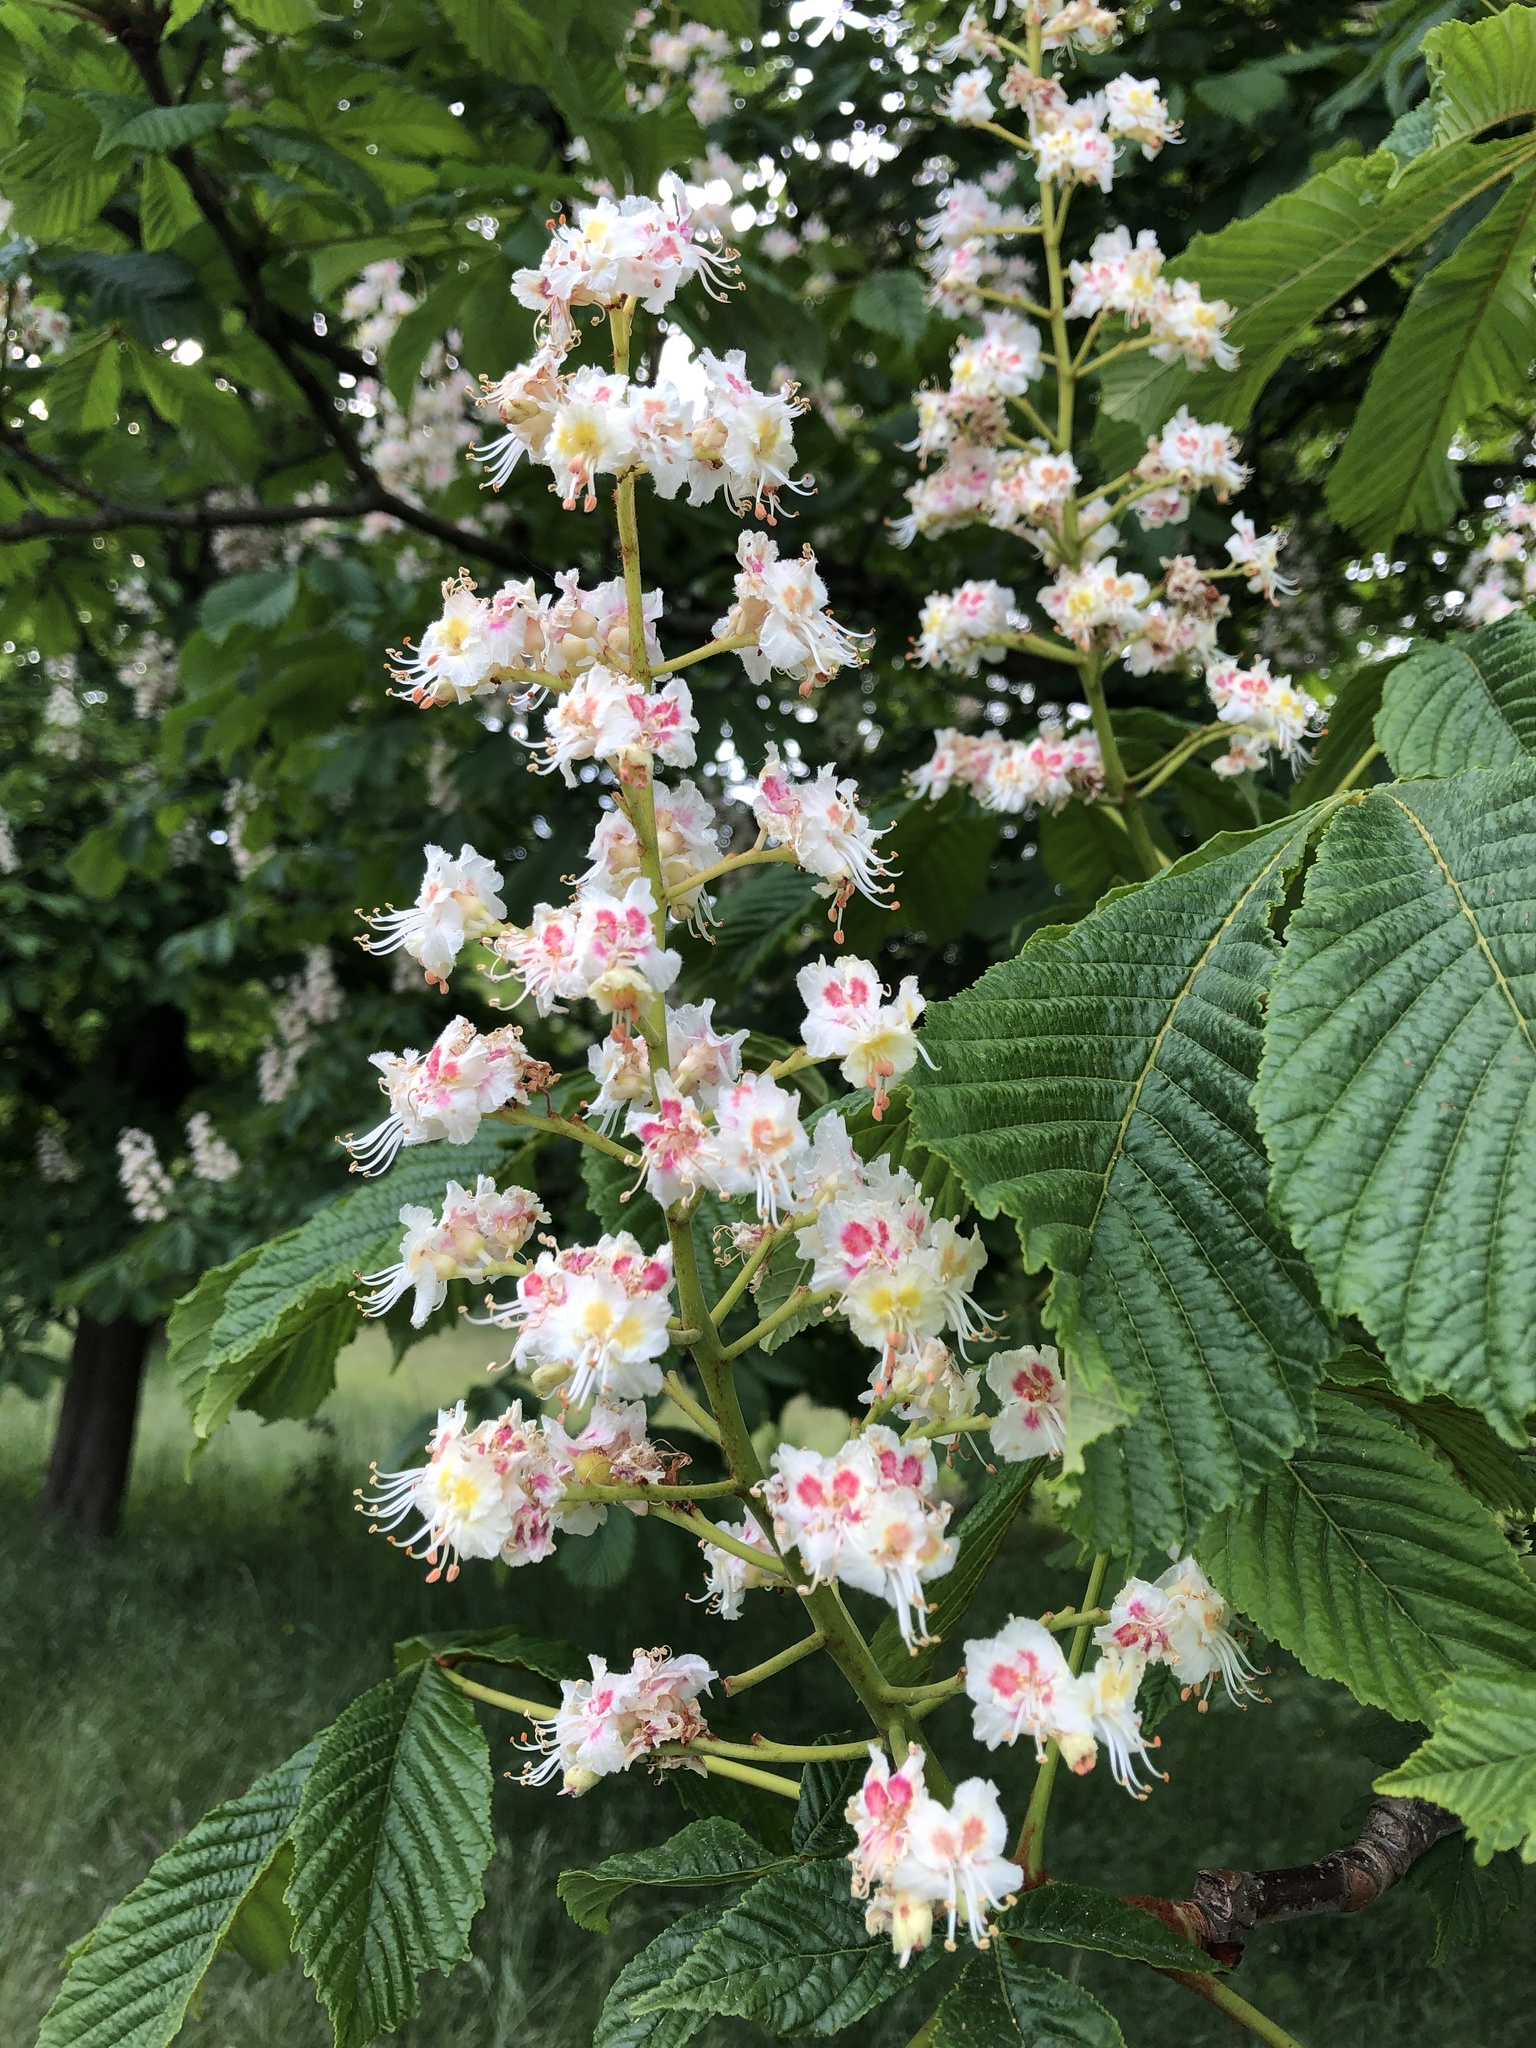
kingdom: Plantae
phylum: Tracheophyta
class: Magnoliopsida
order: Sapindales
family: Sapindaceae
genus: Aesculus
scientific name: Aesculus hippocastanum
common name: Horse-chestnut
